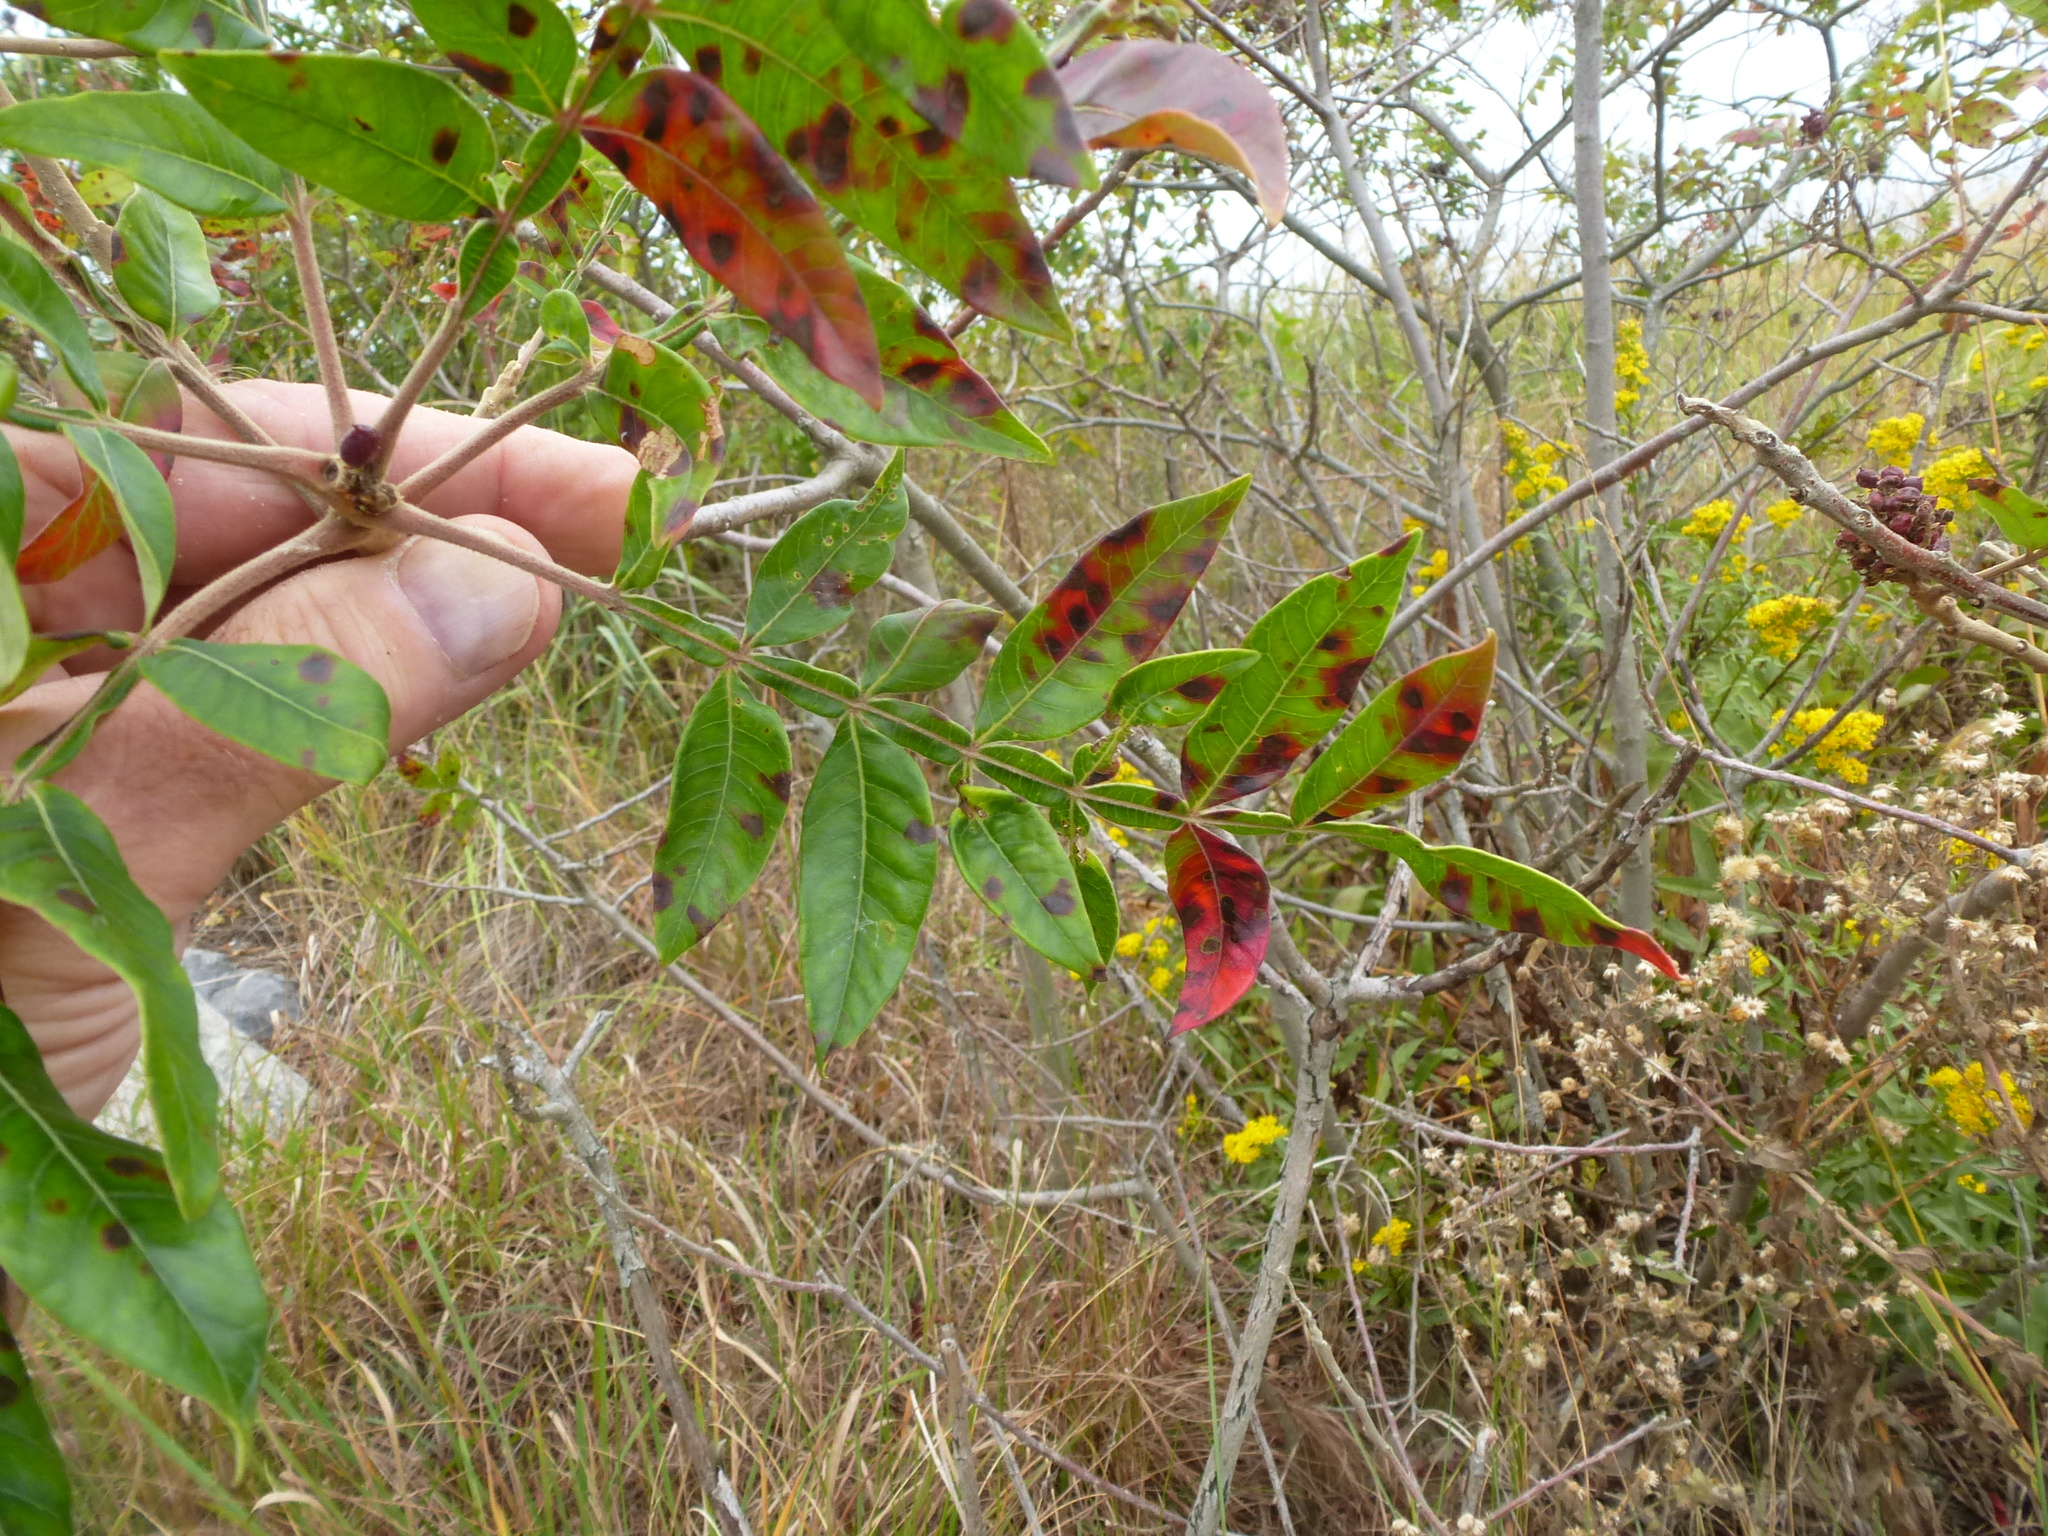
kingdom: Plantae
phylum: Tracheophyta
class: Magnoliopsida
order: Sapindales
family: Anacardiaceae
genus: Rhus
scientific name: Rhus copallina
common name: Shining sumac
